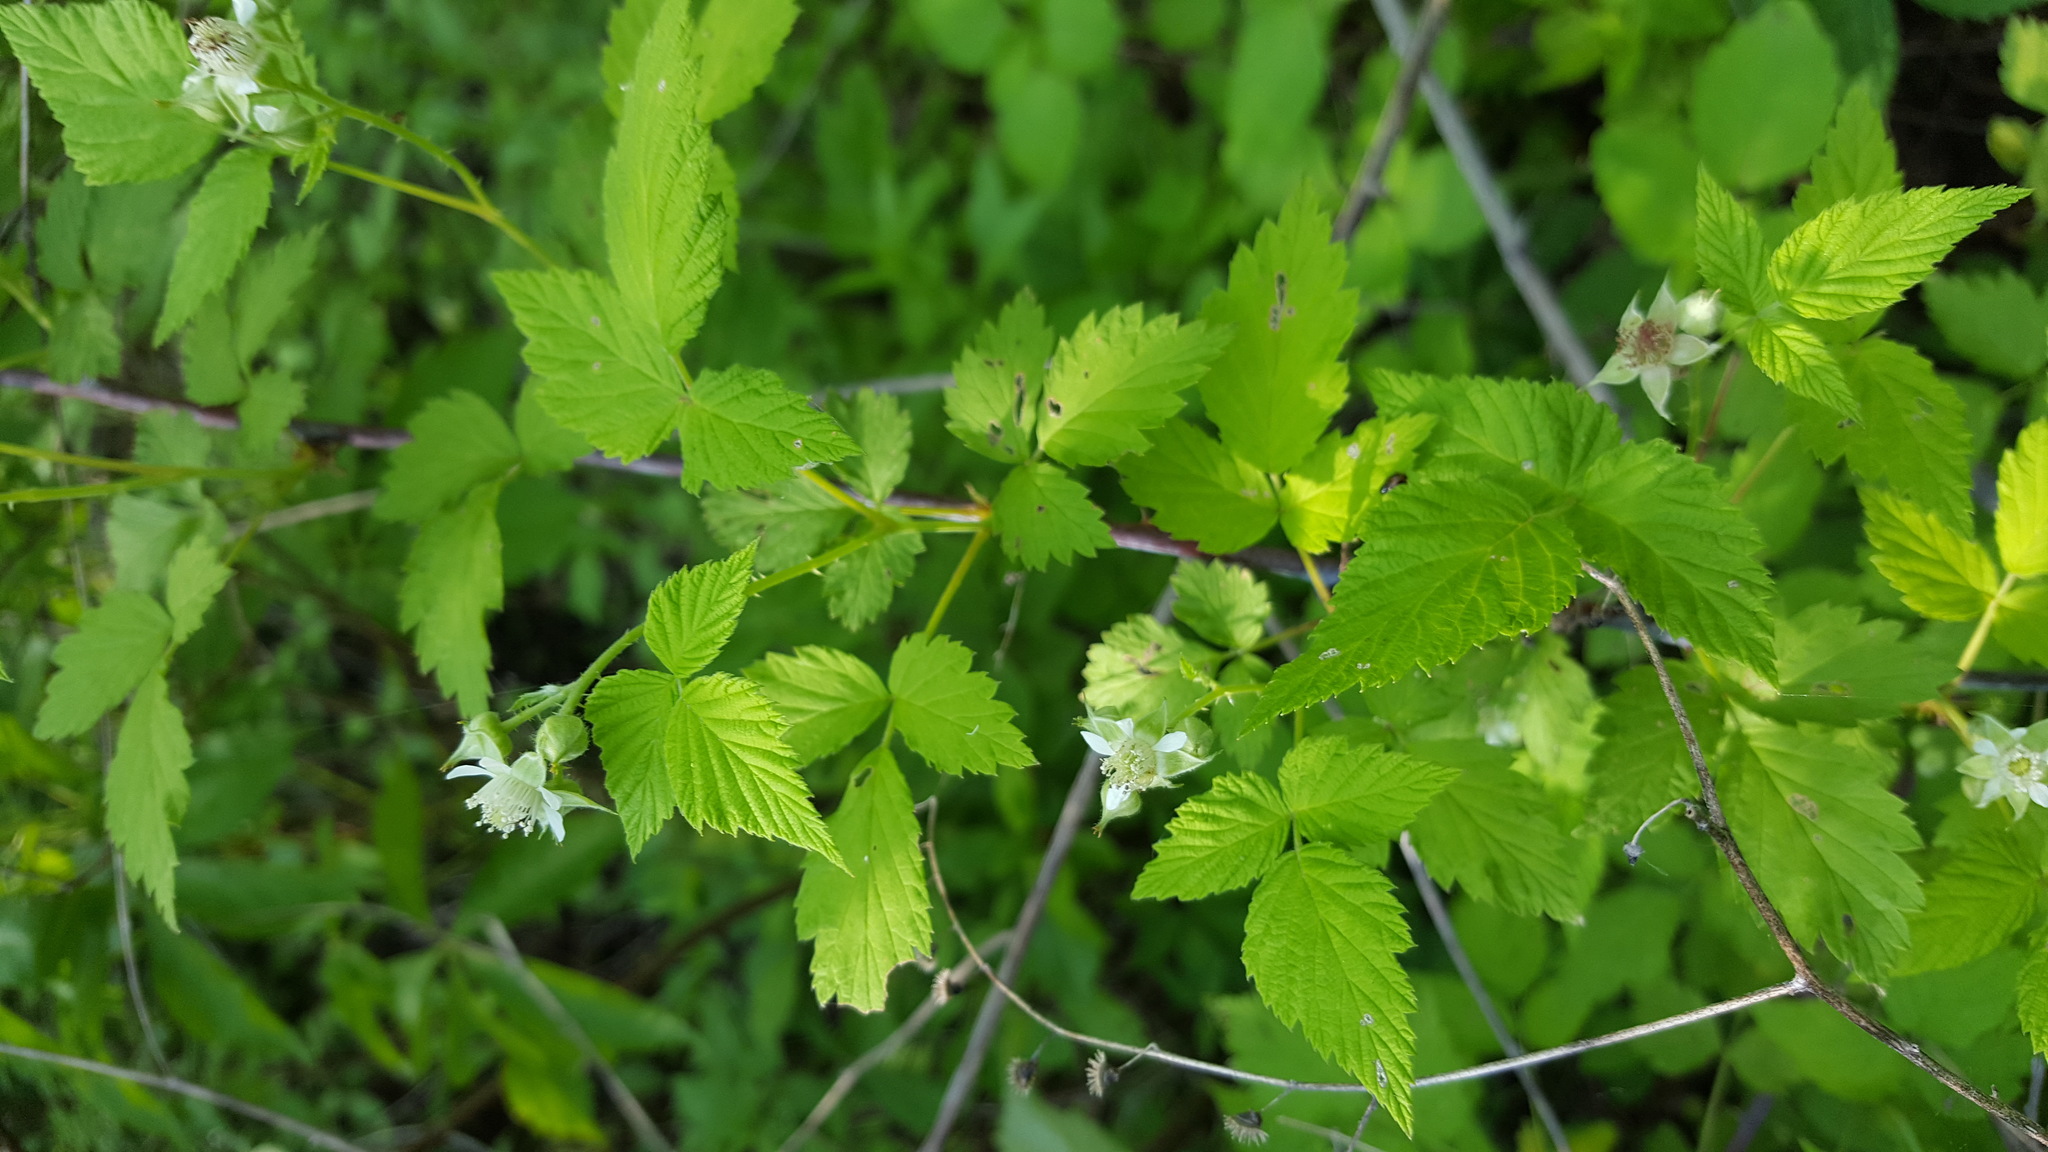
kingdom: Plantae
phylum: Tracheophyta
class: Magnoliopsida
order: Rosales
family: Rosaceae
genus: Rubus
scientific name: Rubus occidentalis
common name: Black raspberry
